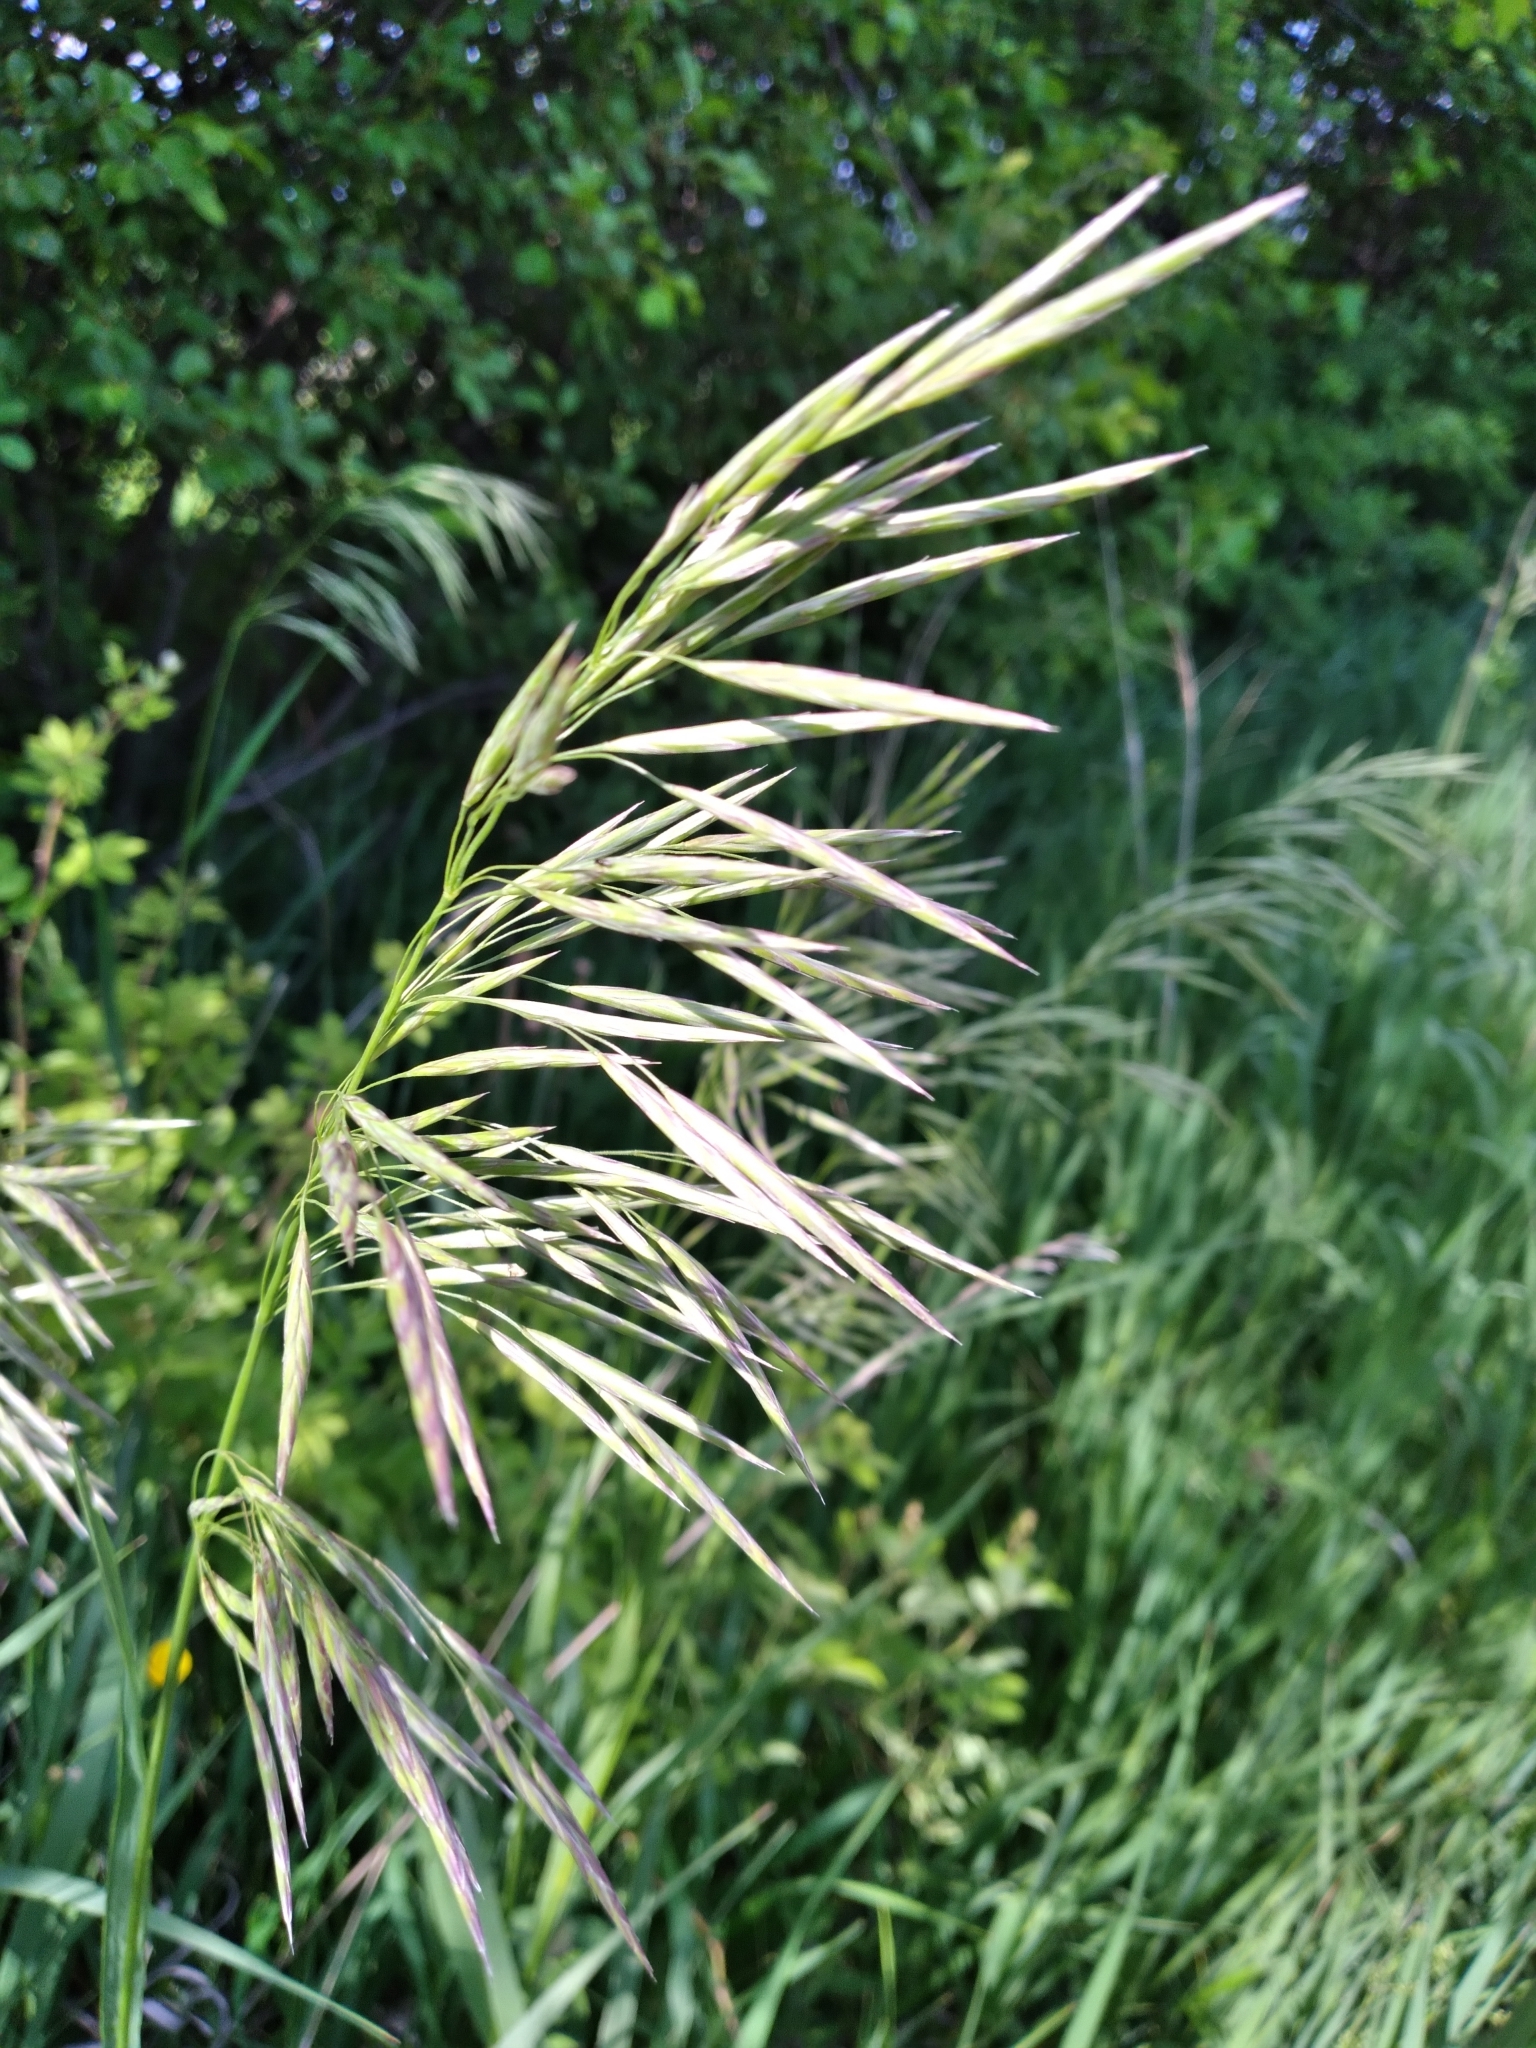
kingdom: Plantae
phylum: Tracheophyta
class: Liliopsida
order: Poales
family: Poaceae
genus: Bromus
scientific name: Bromus inermis
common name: Smooth brome
